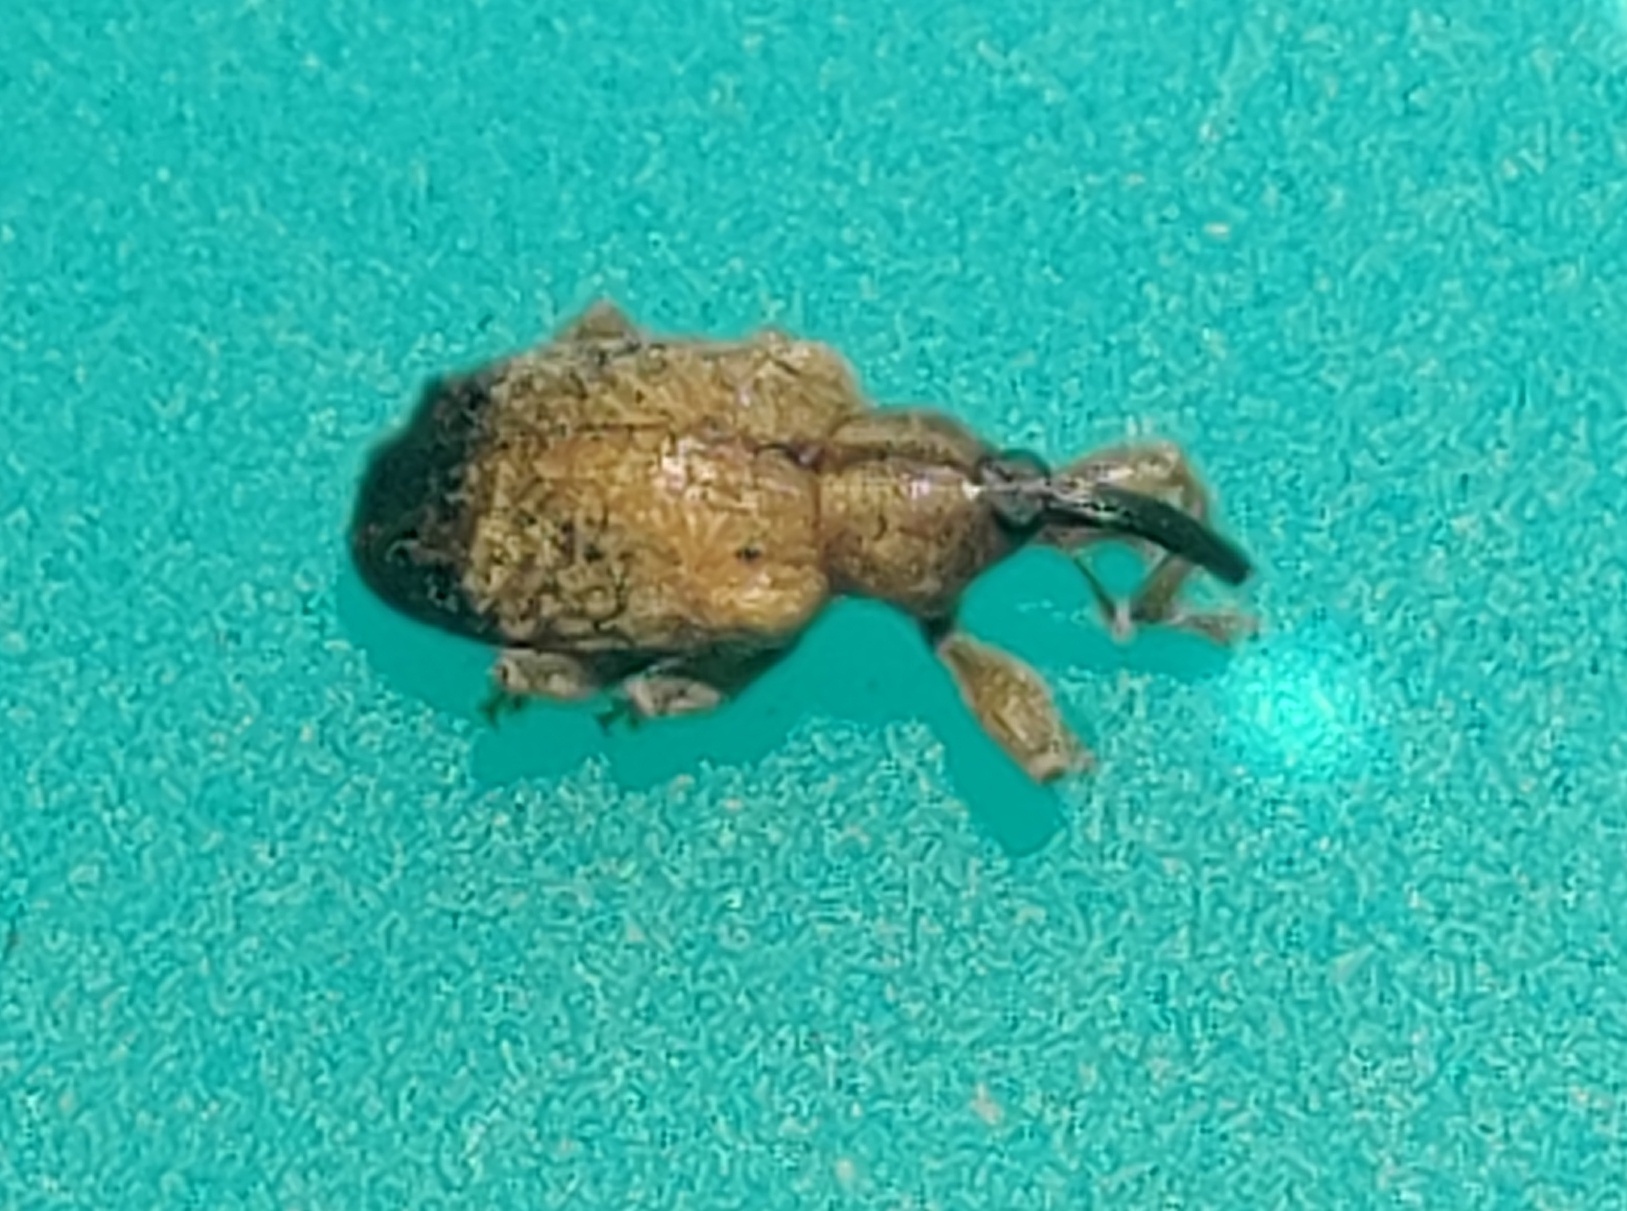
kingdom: Animalia
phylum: Arthropoda
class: Insecta
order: Coleoptera
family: Curculionidae
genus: Ochyromera
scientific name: Ochyromera ligustri
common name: Weevil
